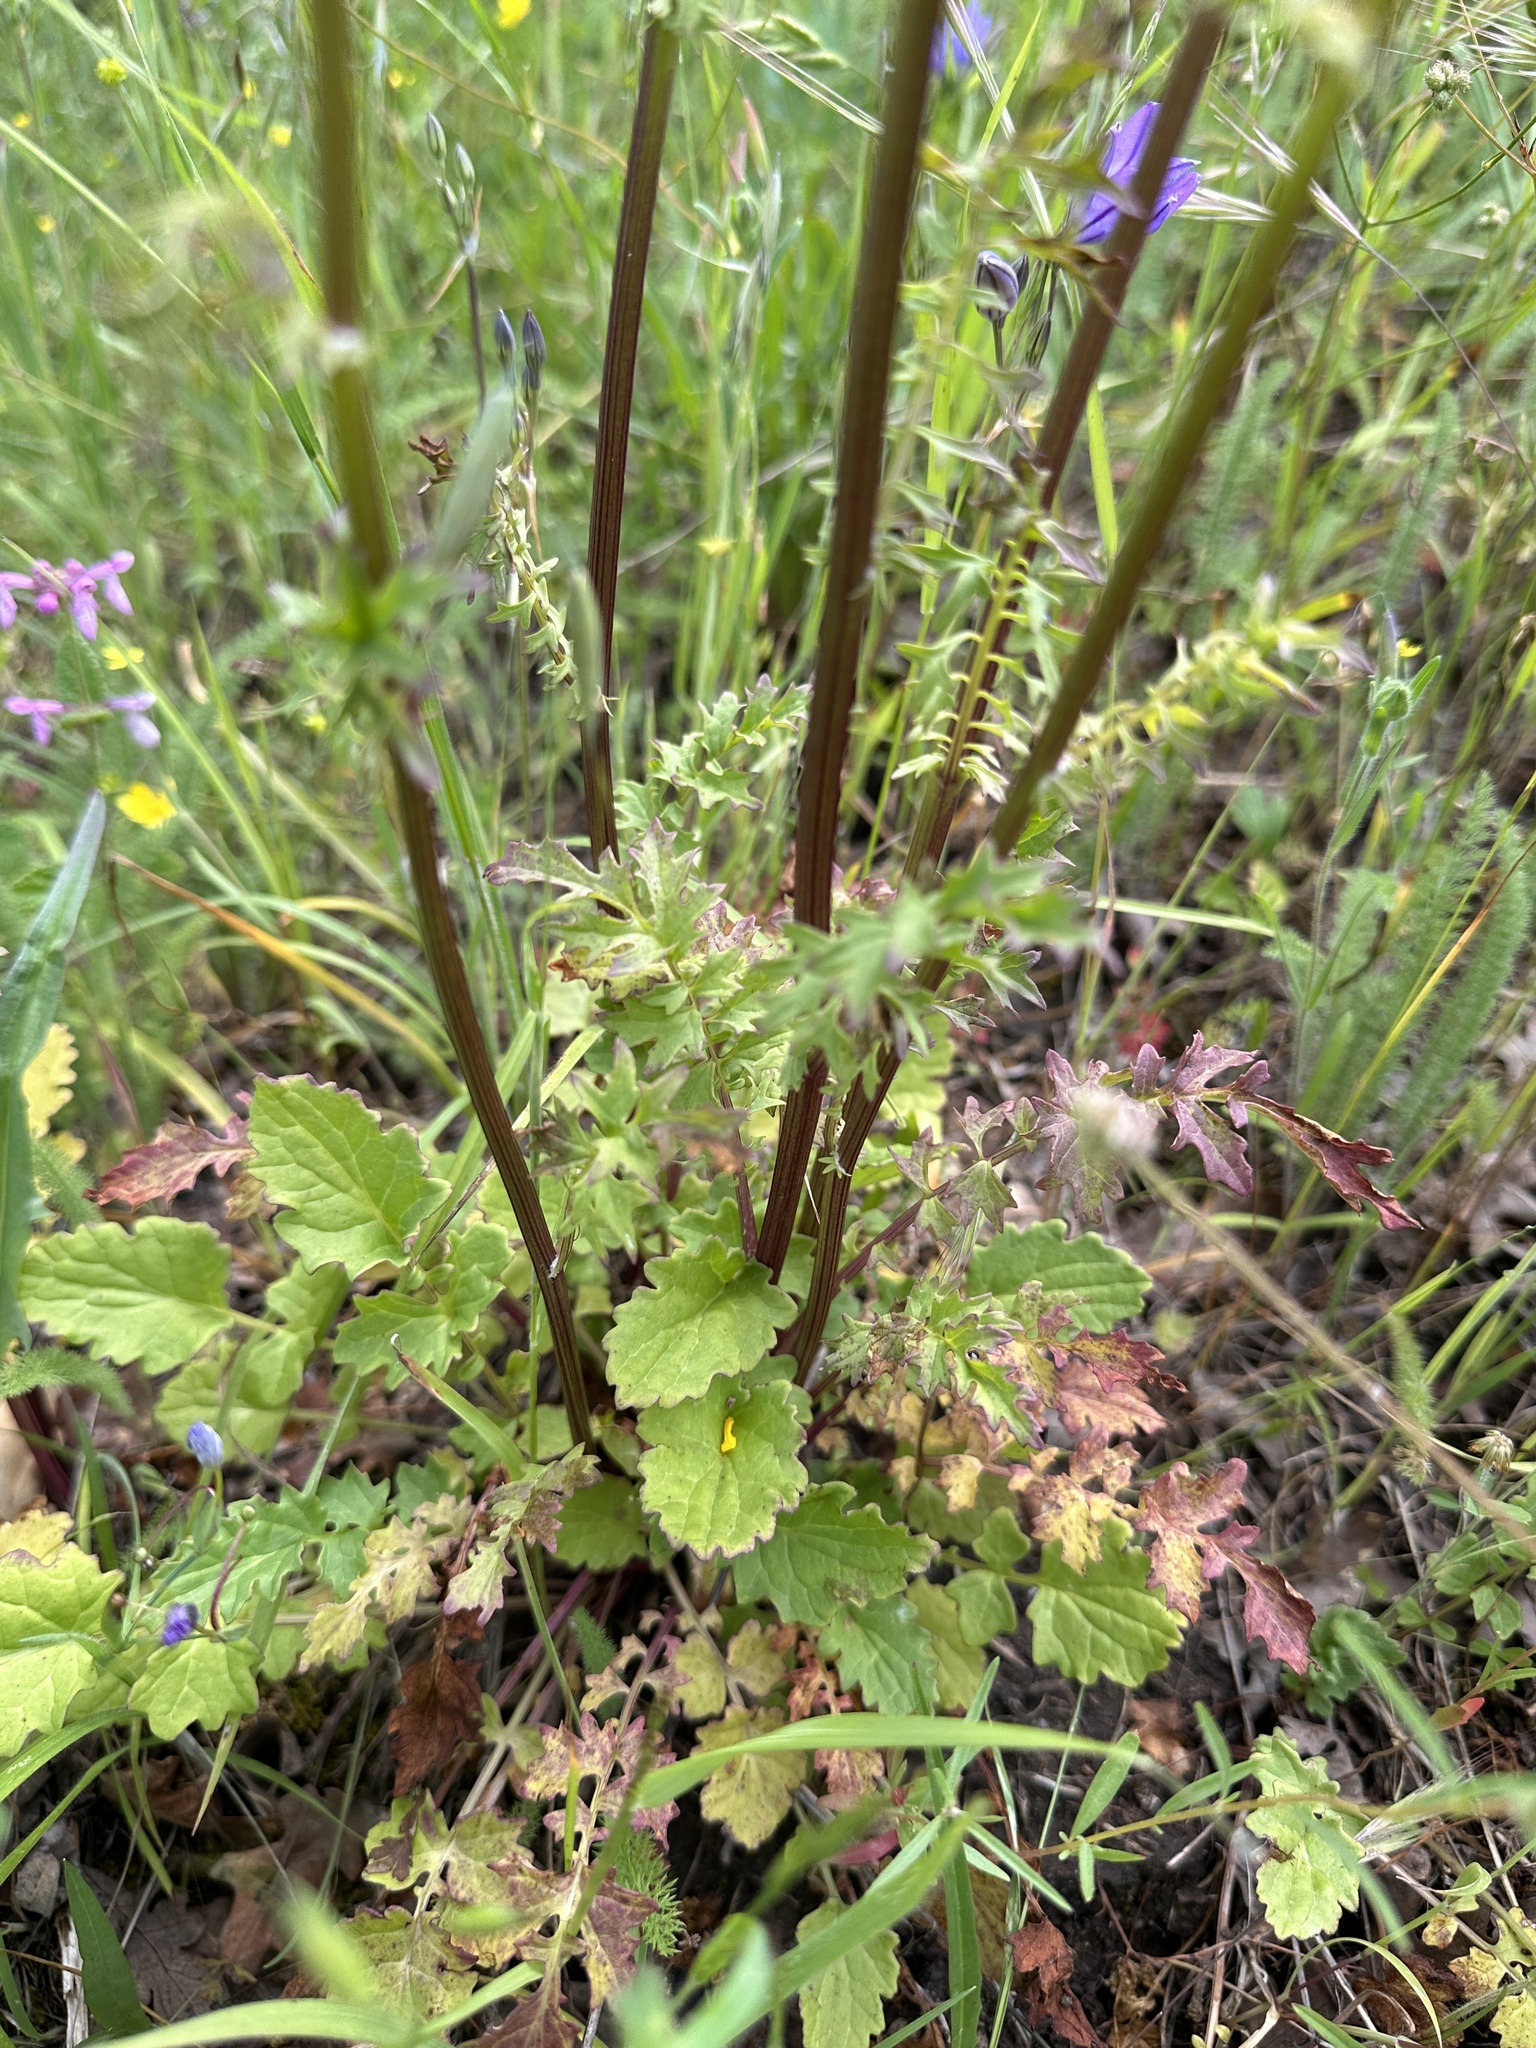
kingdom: Plantae
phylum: Tracheophyta
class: Magnoliopsida
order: Asterales
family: Asteraceae
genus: Packera
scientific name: Packera breweri
